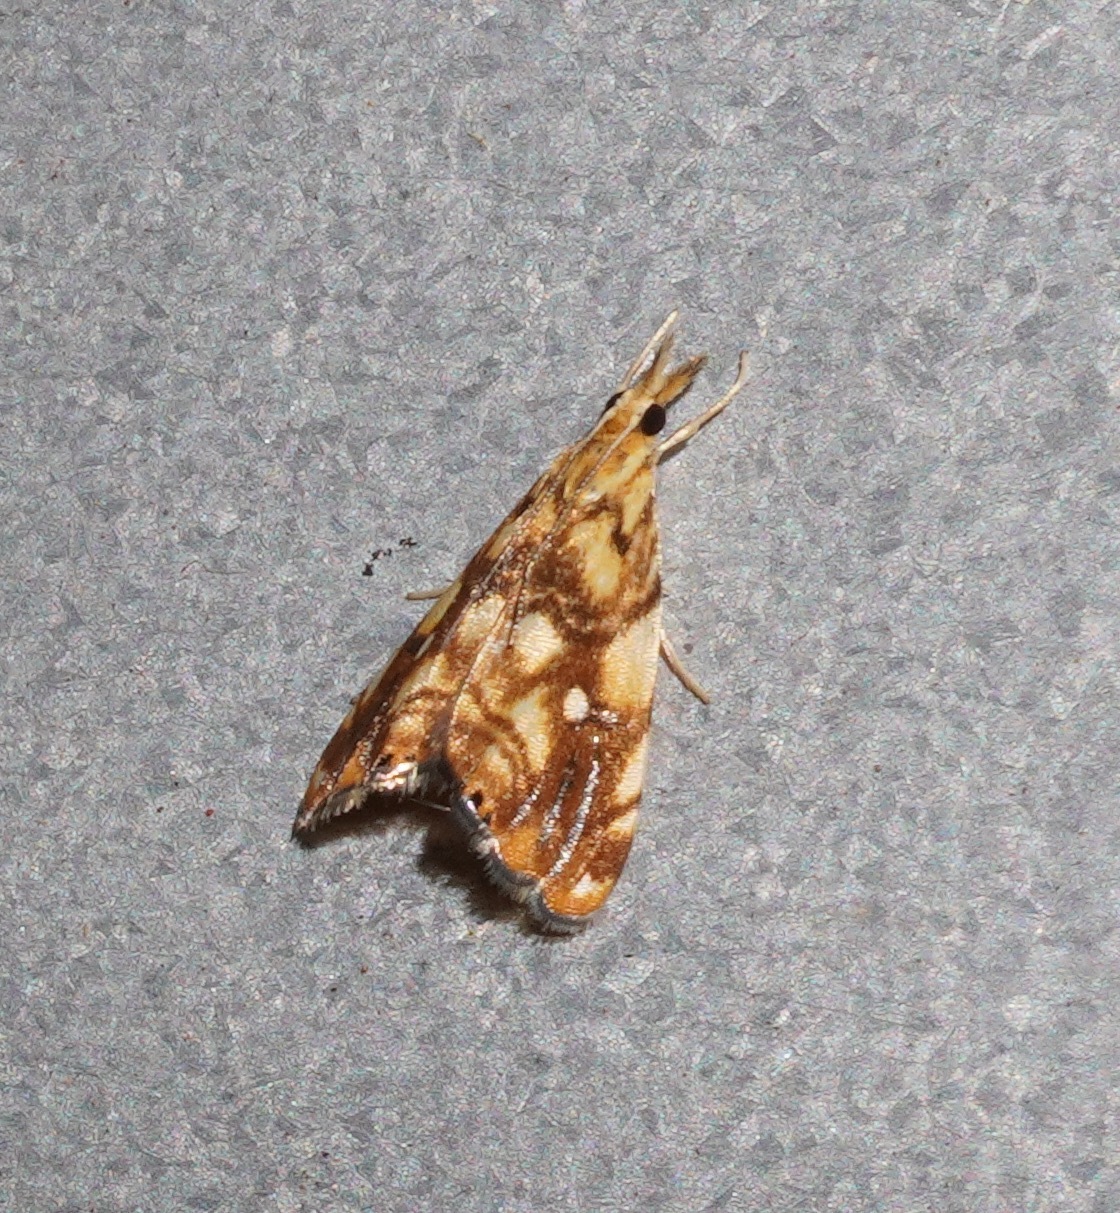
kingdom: Animalia
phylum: Arthropoda
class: Insecta
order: Lepidoptera
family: Crambidae
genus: Glaucocharis
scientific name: Glaucocharis selenaea
